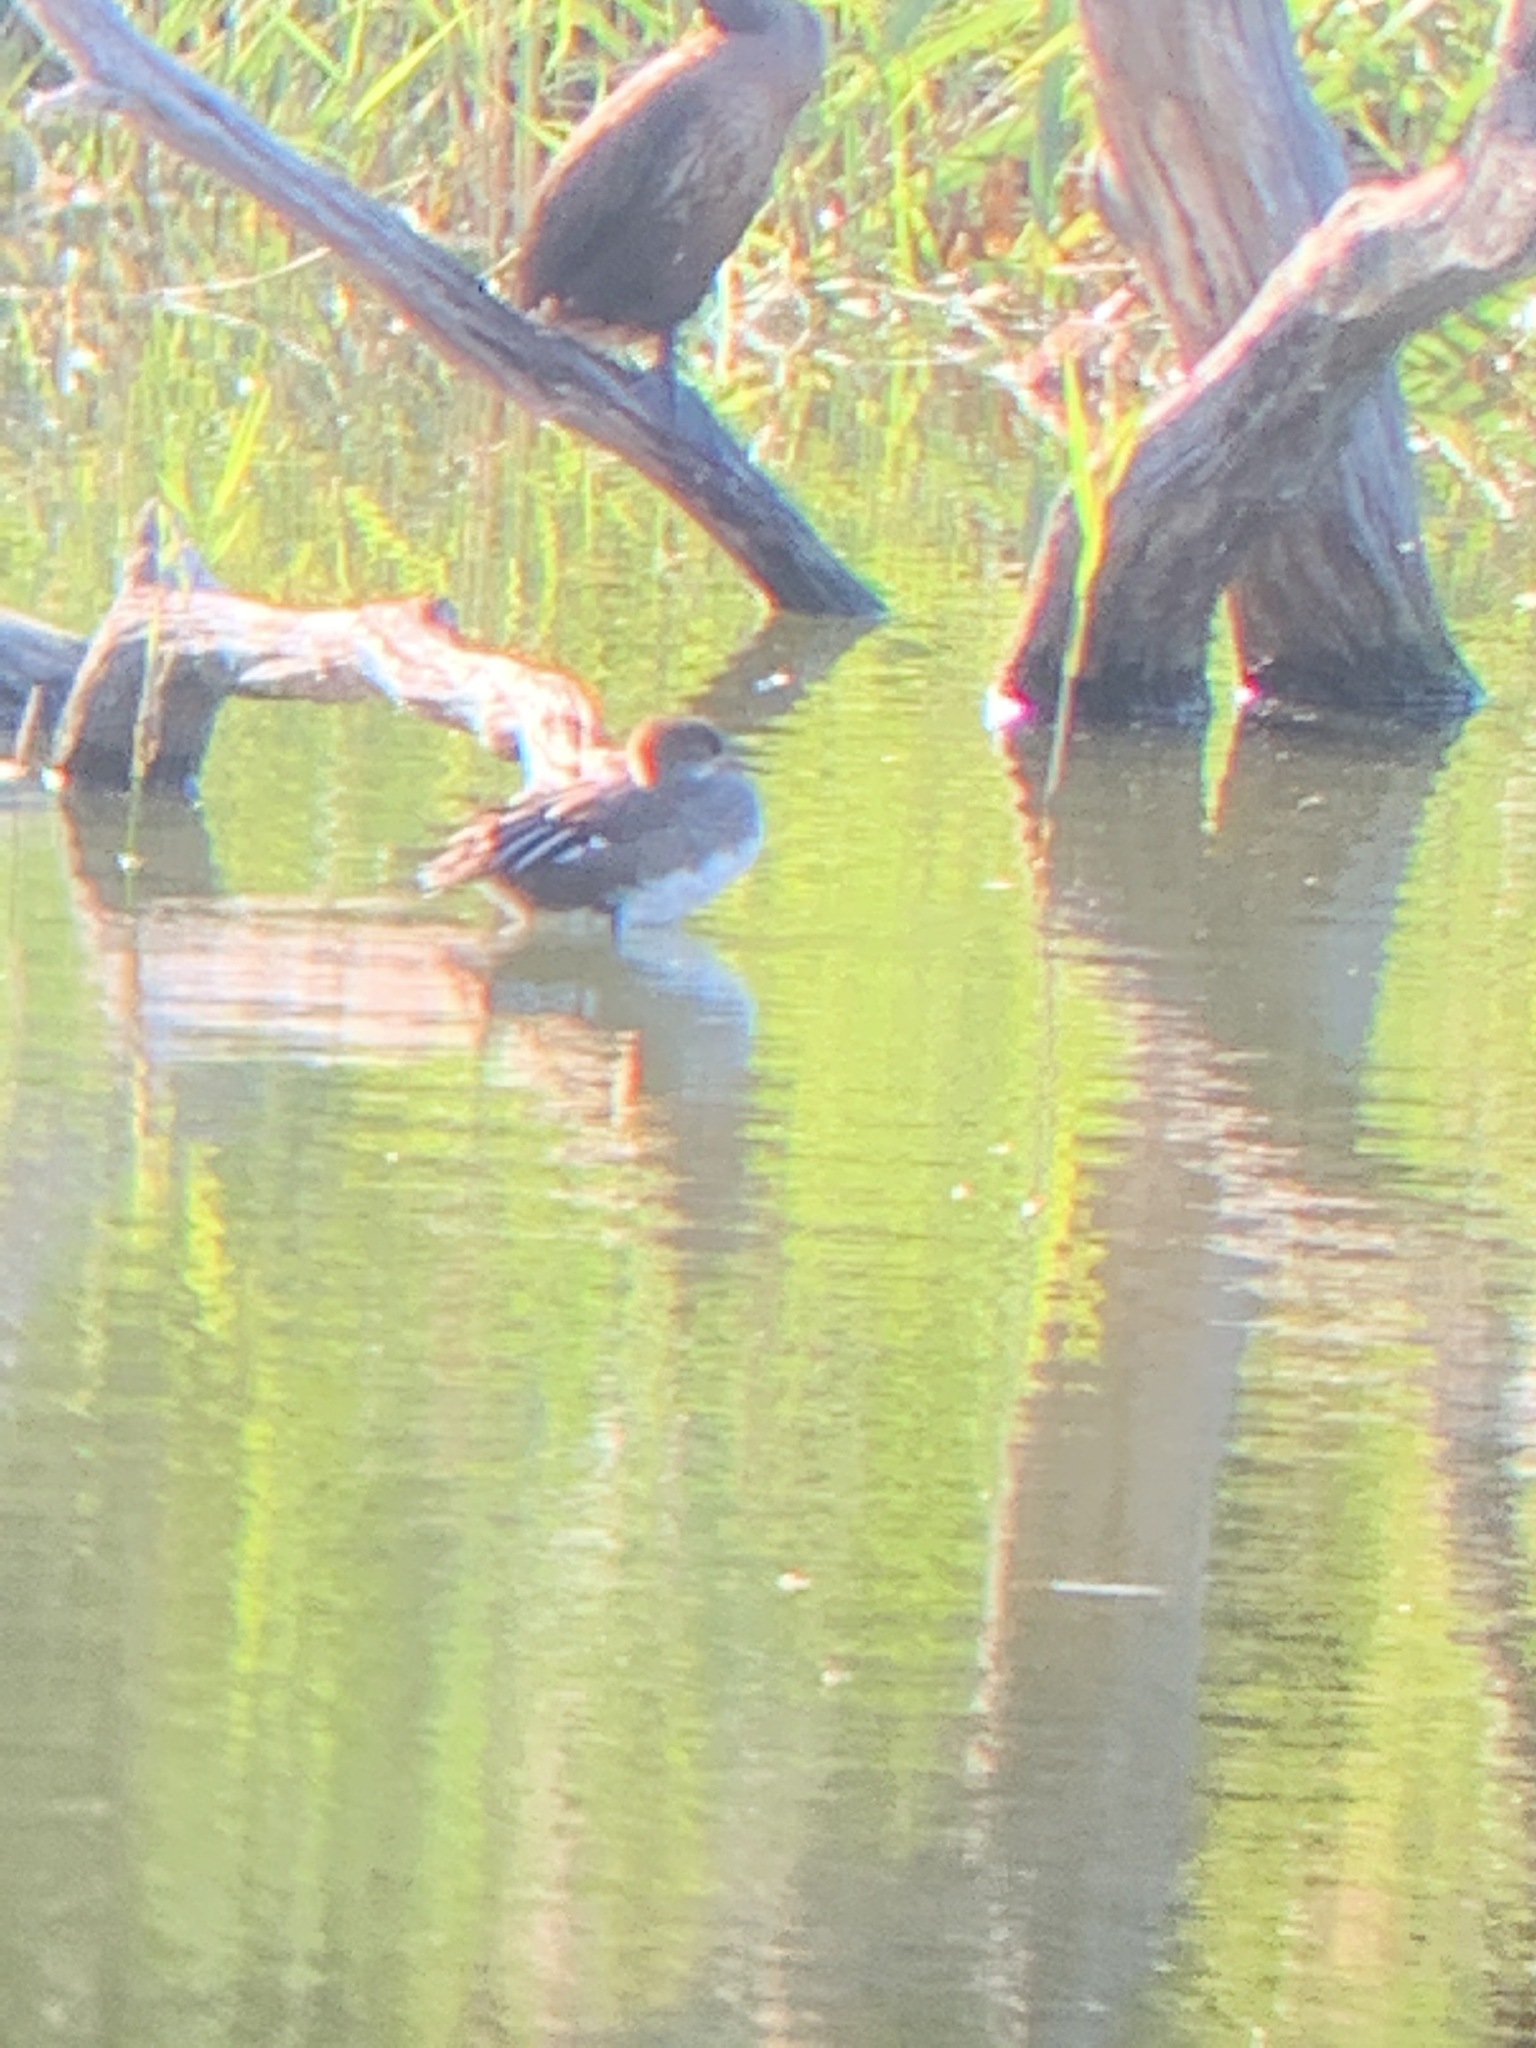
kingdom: Animalia
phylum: Chordata
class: Aves
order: Anseriformes
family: Anatidae
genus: Lophodytes
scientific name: Lophodytes cucullatus
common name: Hooded merganser
